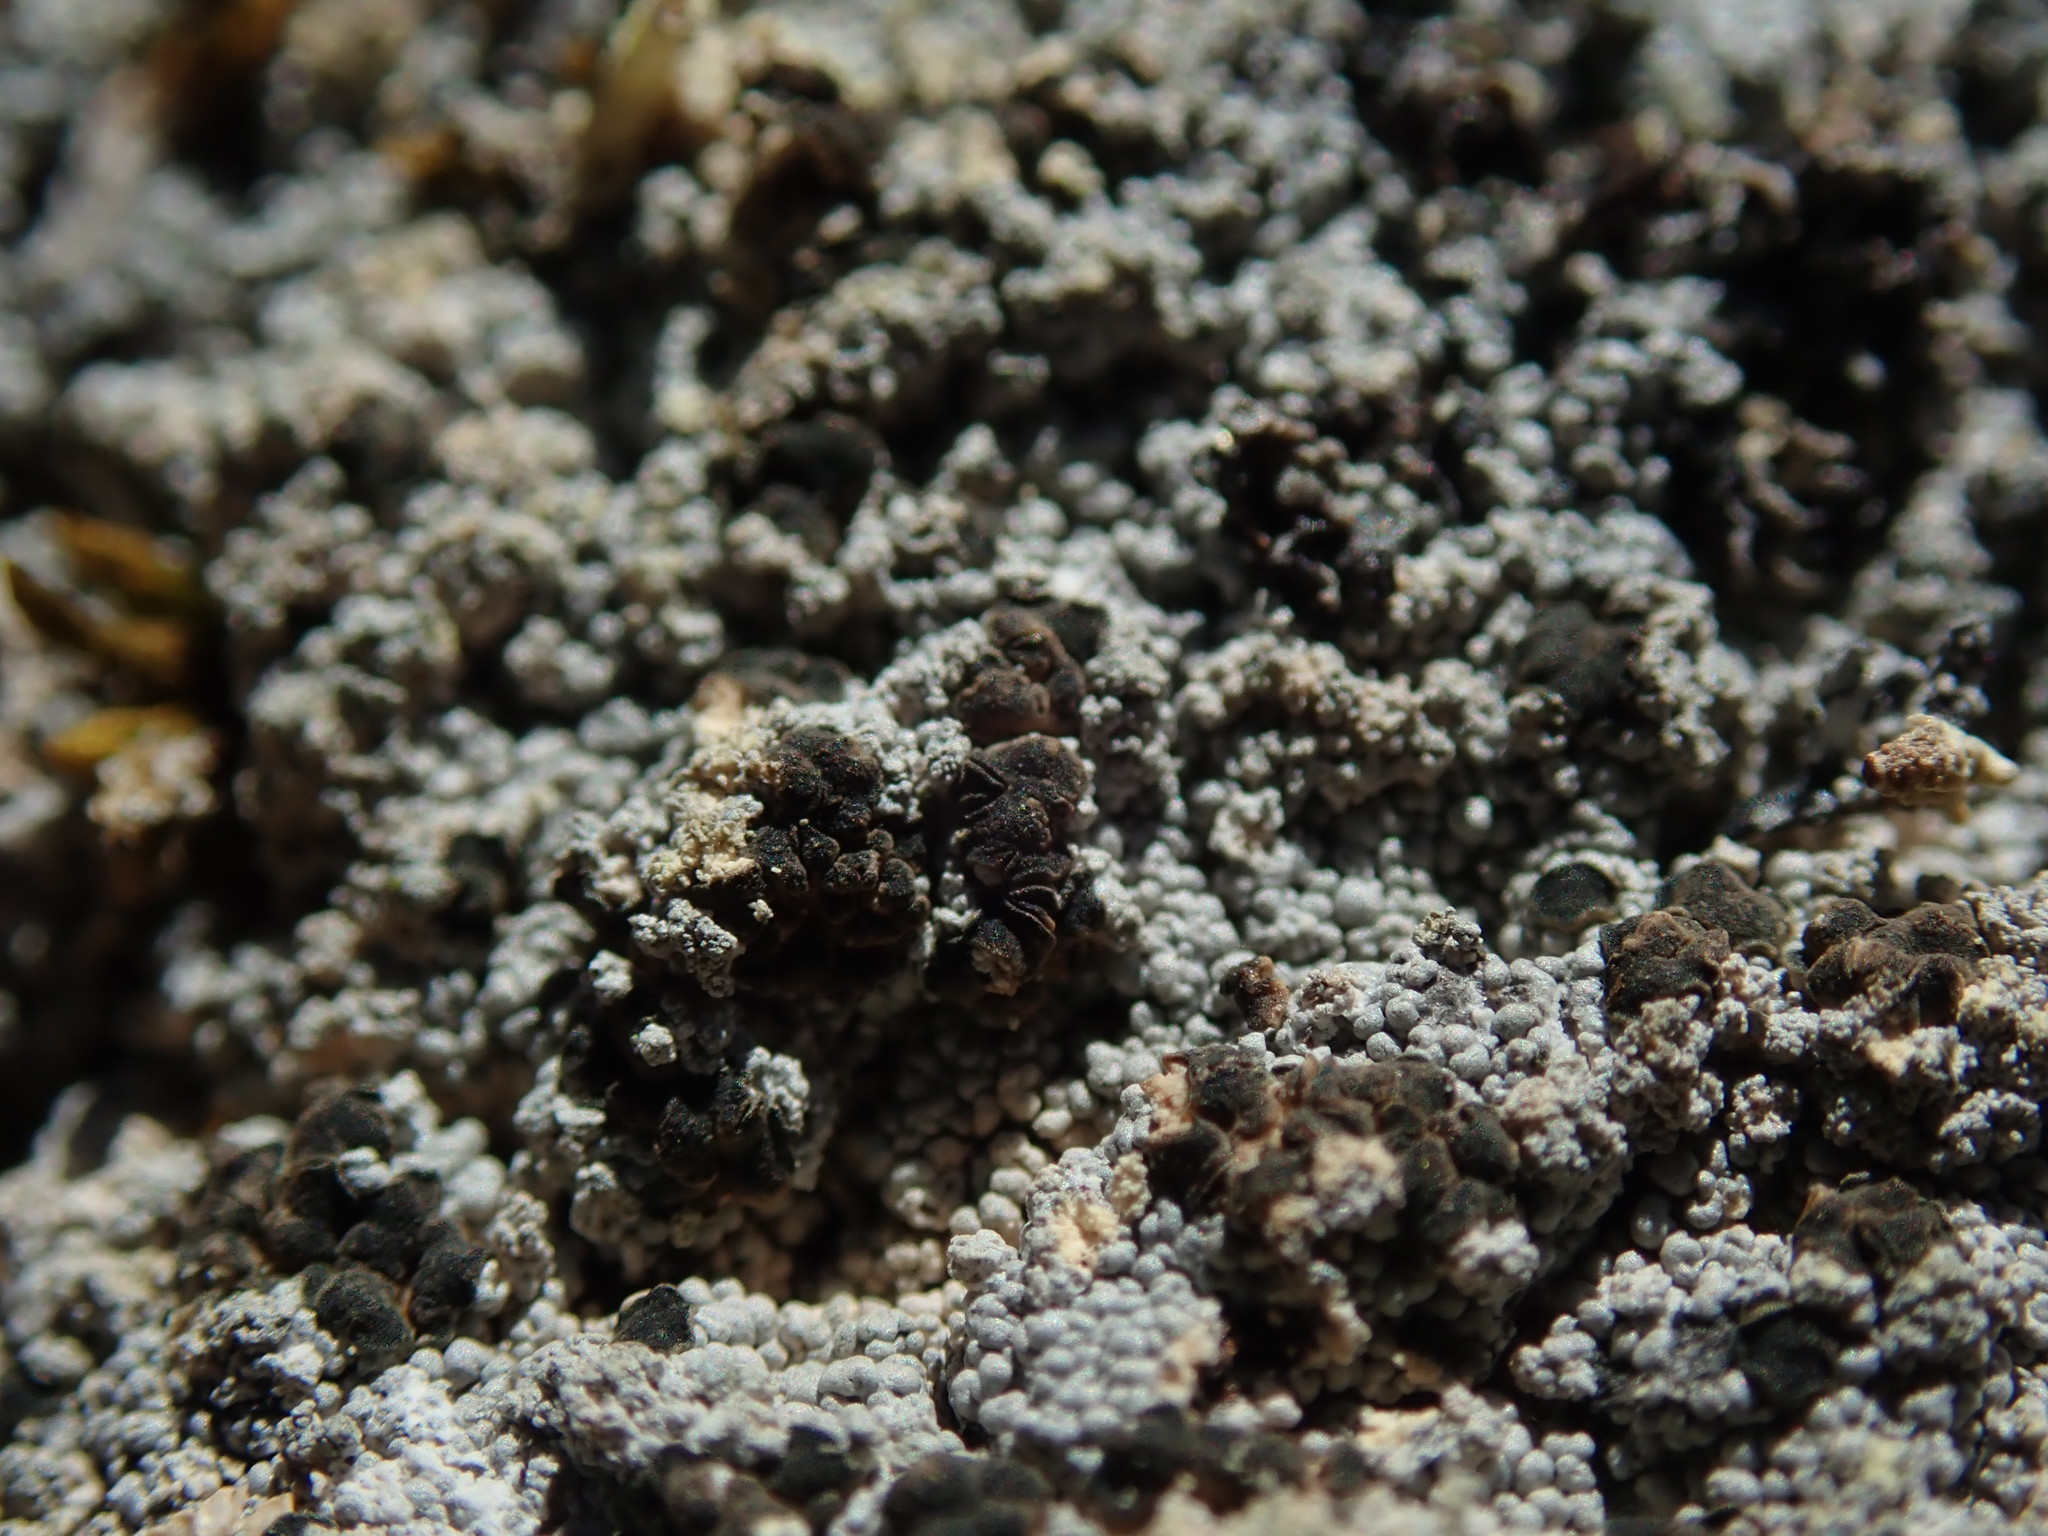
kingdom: Fungi
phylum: Ascomycota
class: Lecanoromycetes
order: Baeomycetales
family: Trapeliaceae
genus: Trapeliopsis
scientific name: Trapeliopsis granulosa
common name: Granular mottled-disk lichen
